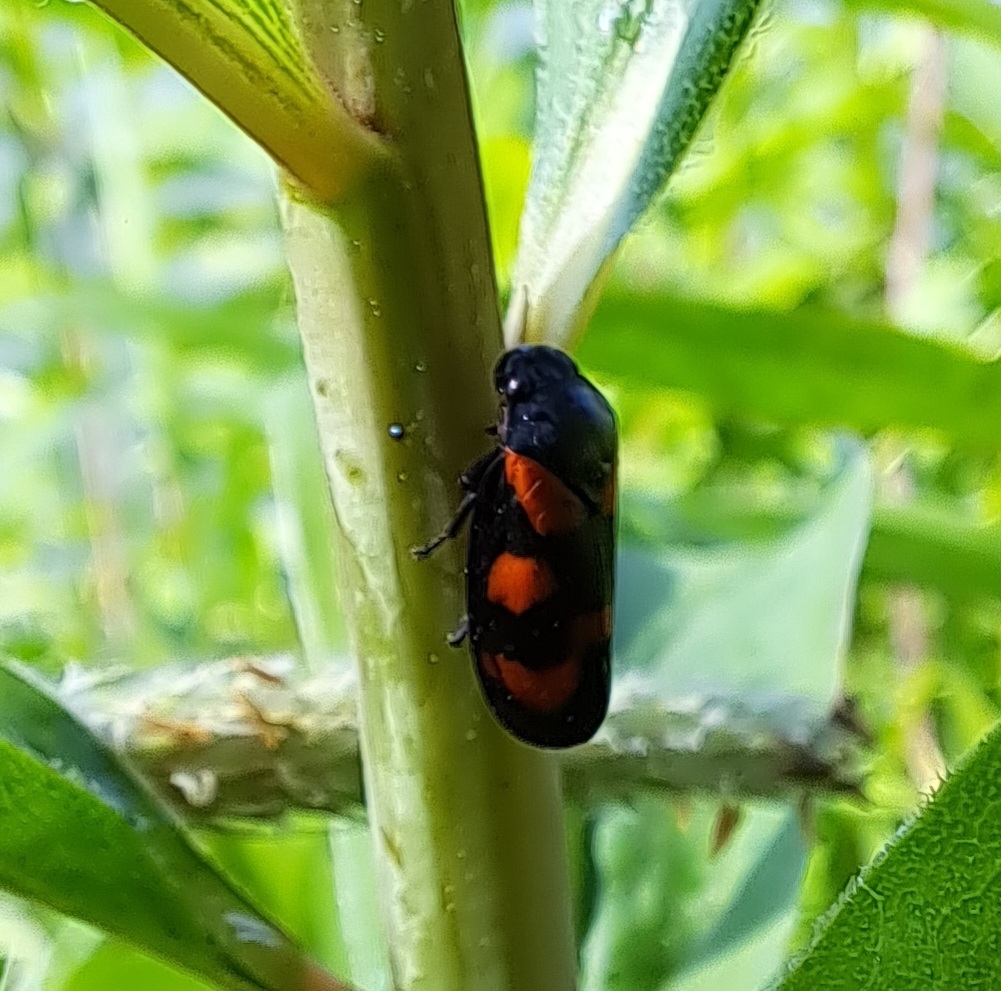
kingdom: Animalia
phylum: Arthropoda
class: Insecta
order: Hemiptera
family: Cercopidae
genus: Cercopis
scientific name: Cercopis vulnerata
